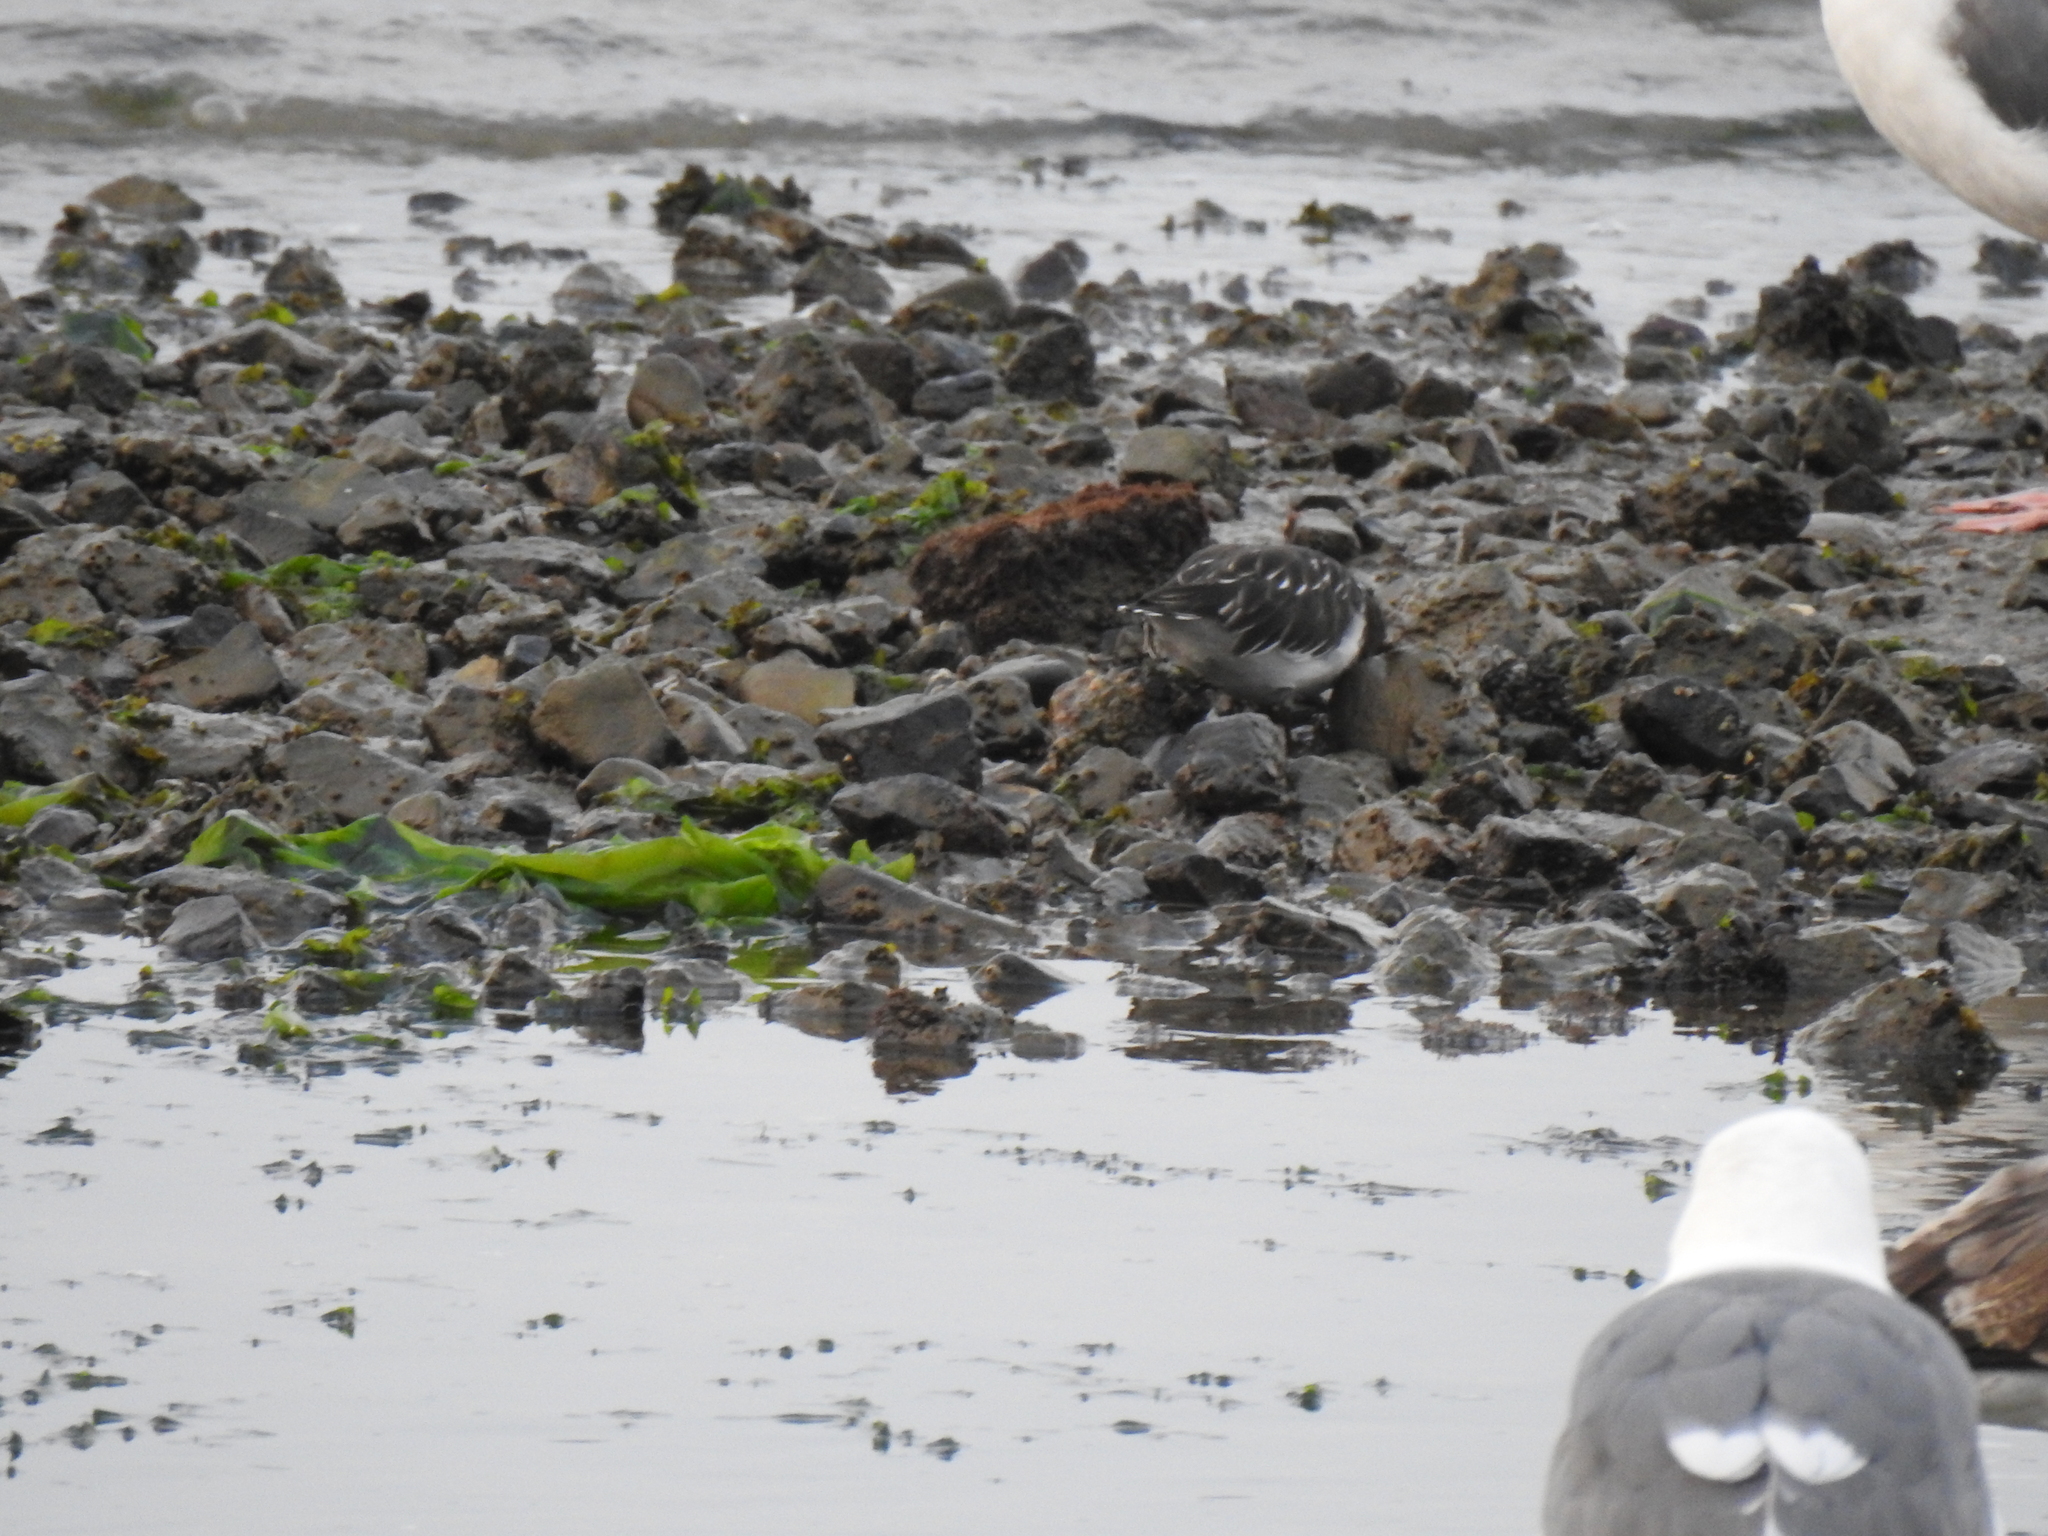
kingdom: Animalia
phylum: Chordata
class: Aves
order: Charadriiformes
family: Scolopacidae
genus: Arenaria
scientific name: Arenaria melanocephala
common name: Black turnstone
